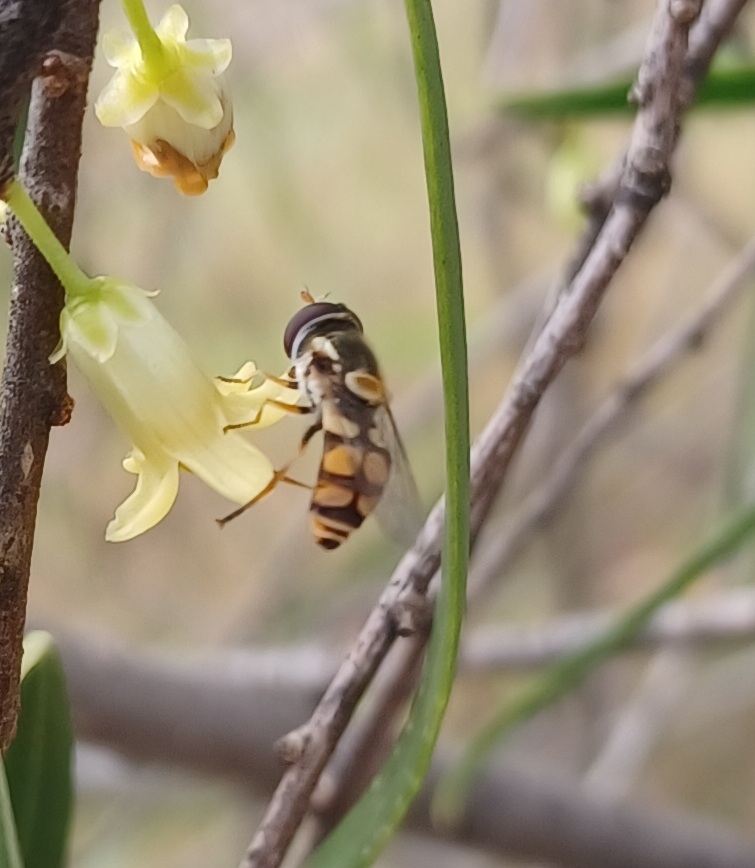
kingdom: Animalia
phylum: Arthropoda
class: Insecta
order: Diptera
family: Syrphidae
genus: Simosyrphus
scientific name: Simosyrphus grandicornis
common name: Hoverfly
